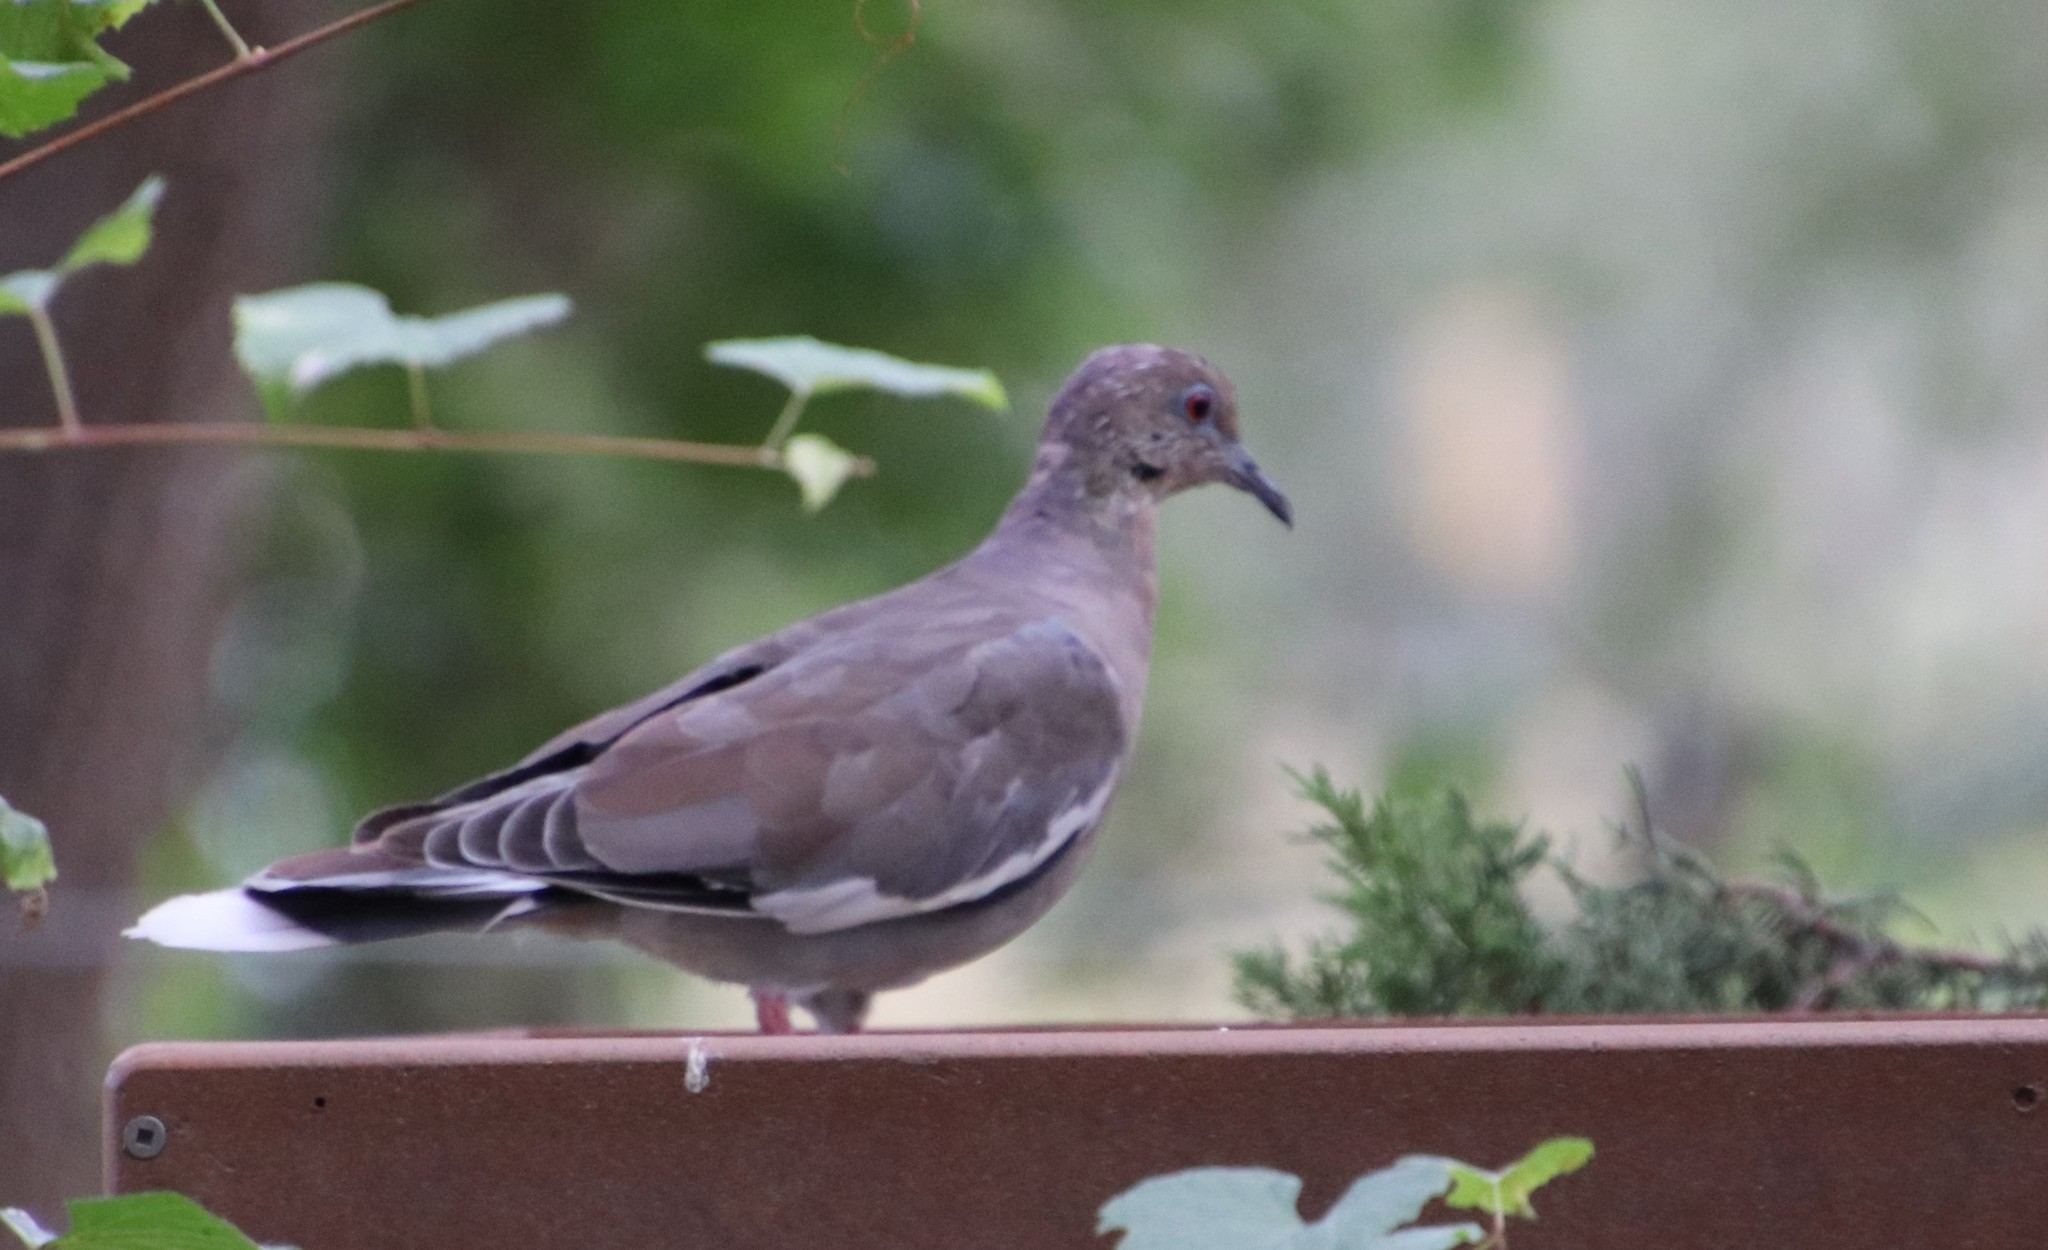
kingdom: Animalia
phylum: Chordata
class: Aves
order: Columbiformes
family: Columbidae
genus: Zenaida
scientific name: Zenaida asiatica
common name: White-winged dove
